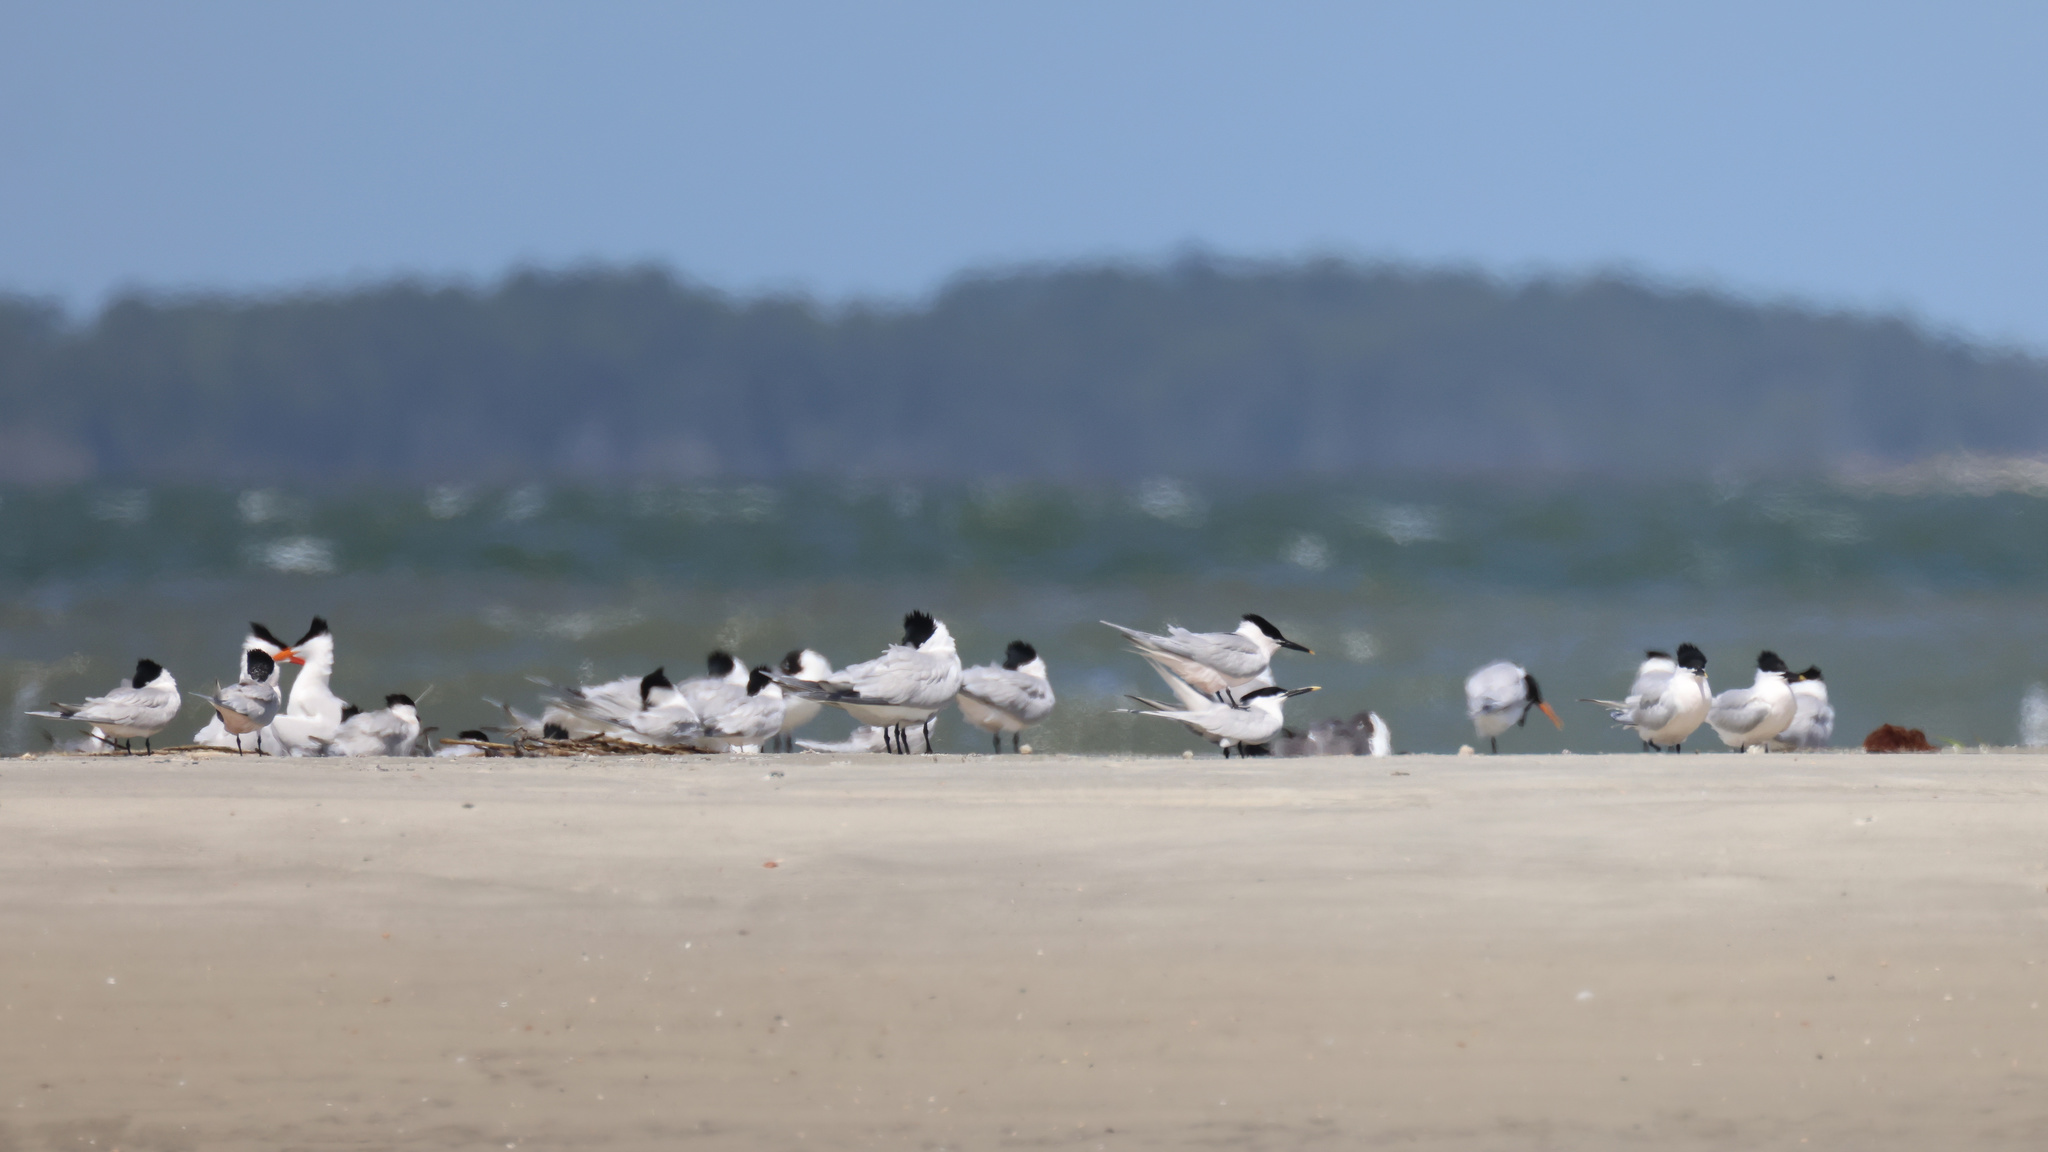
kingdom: Animalia
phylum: Chordata
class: Aves
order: Charadriiformes
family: Laridae
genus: Thalasseus
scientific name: Thalasseus sandvicensis
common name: Sandwich tern
